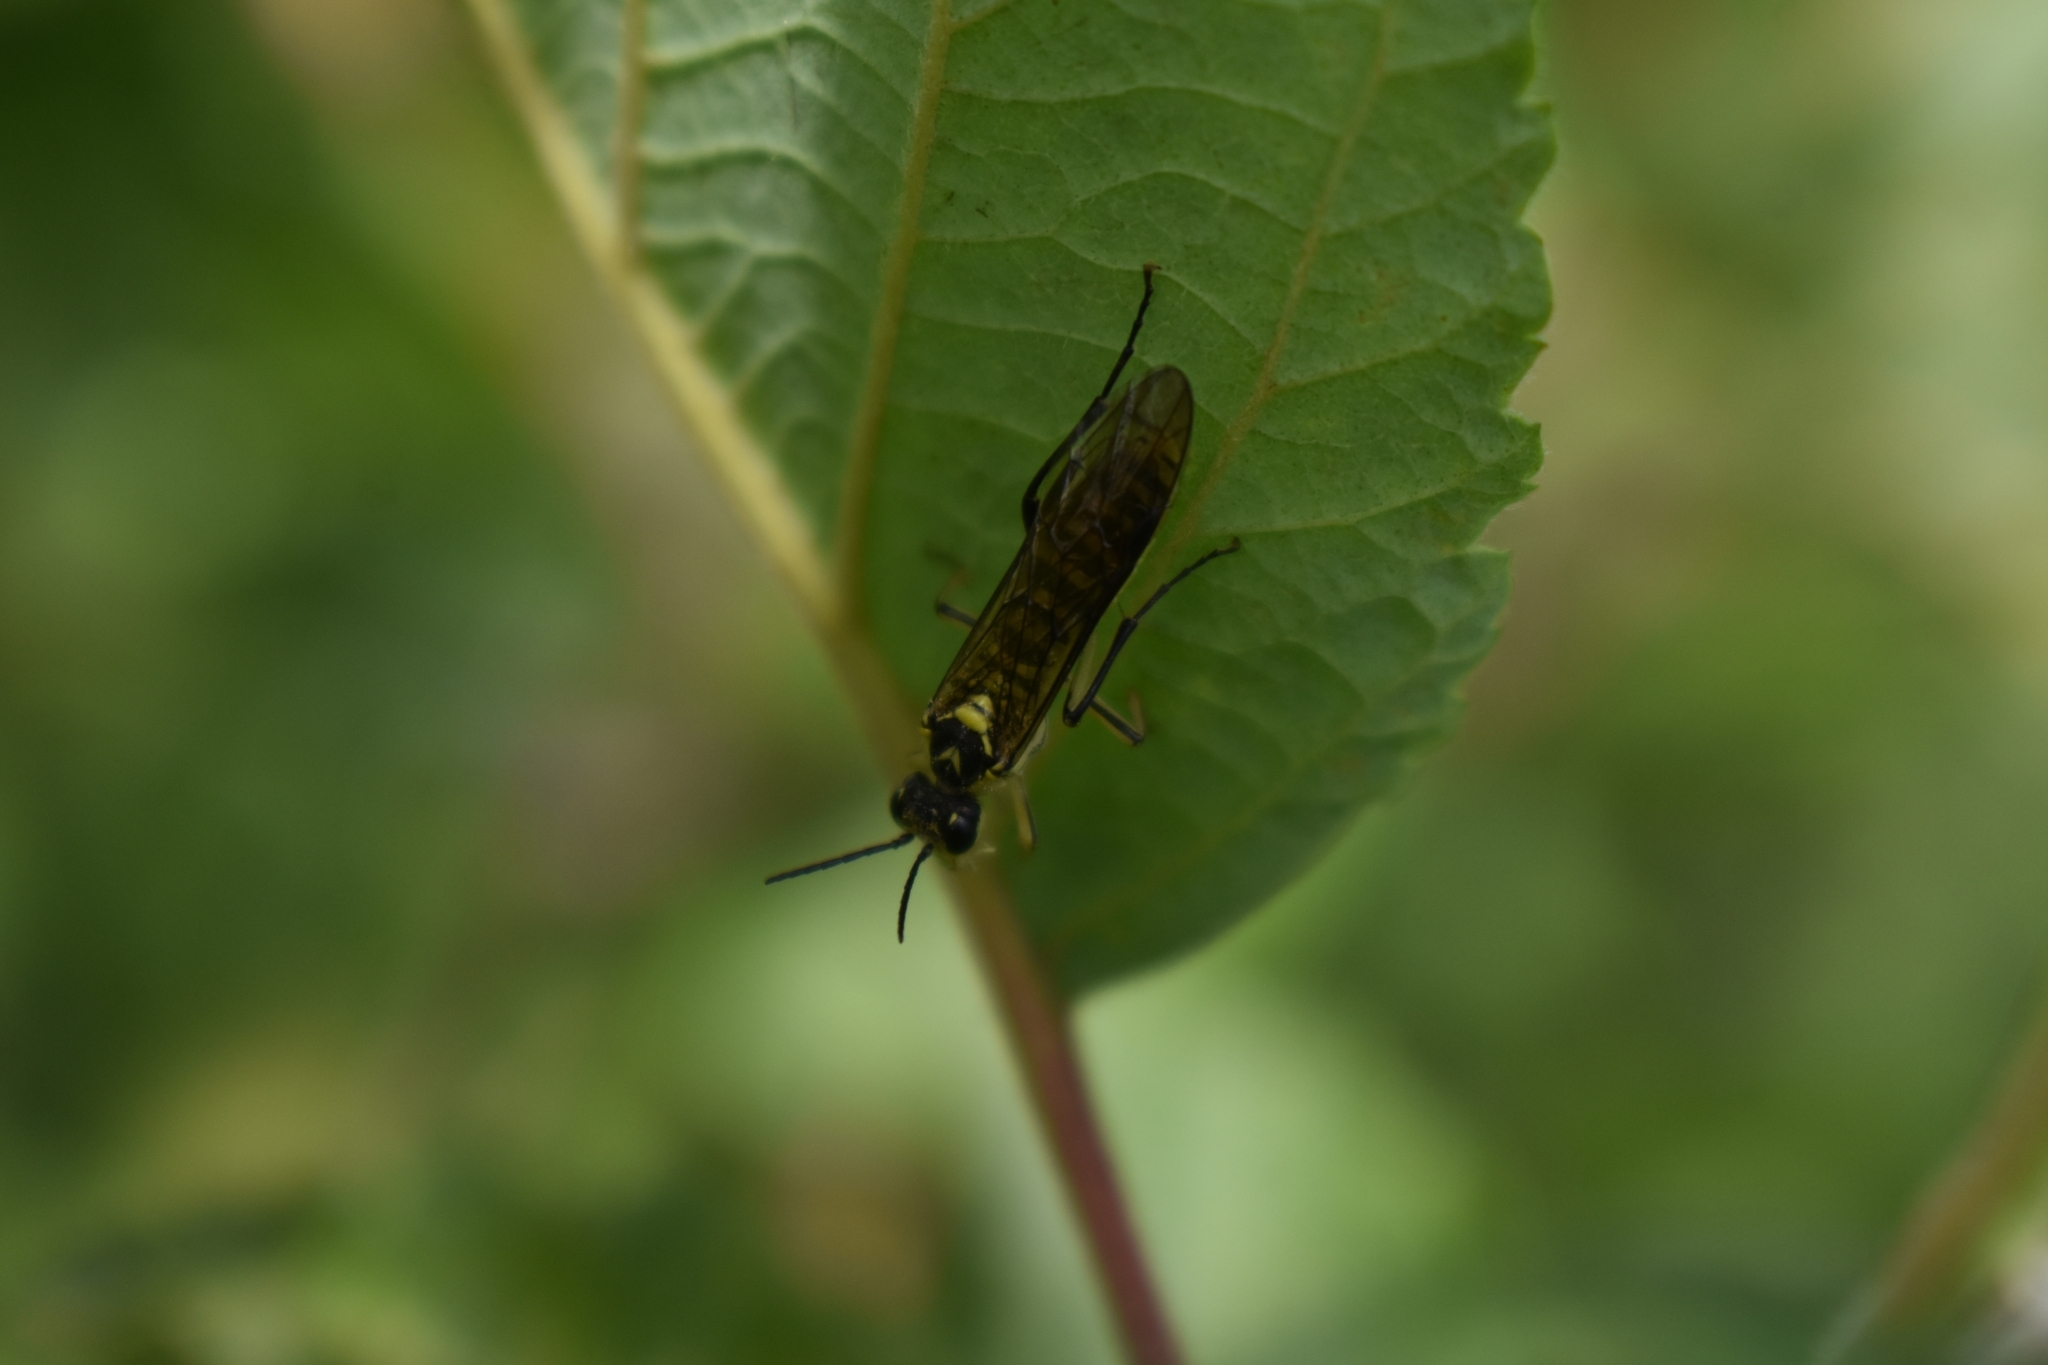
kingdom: Animalia
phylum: Arthropoda
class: Insecta
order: Hymenoptera
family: Tenthredinidae
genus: Tenthredo
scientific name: Tenthredo finschi
